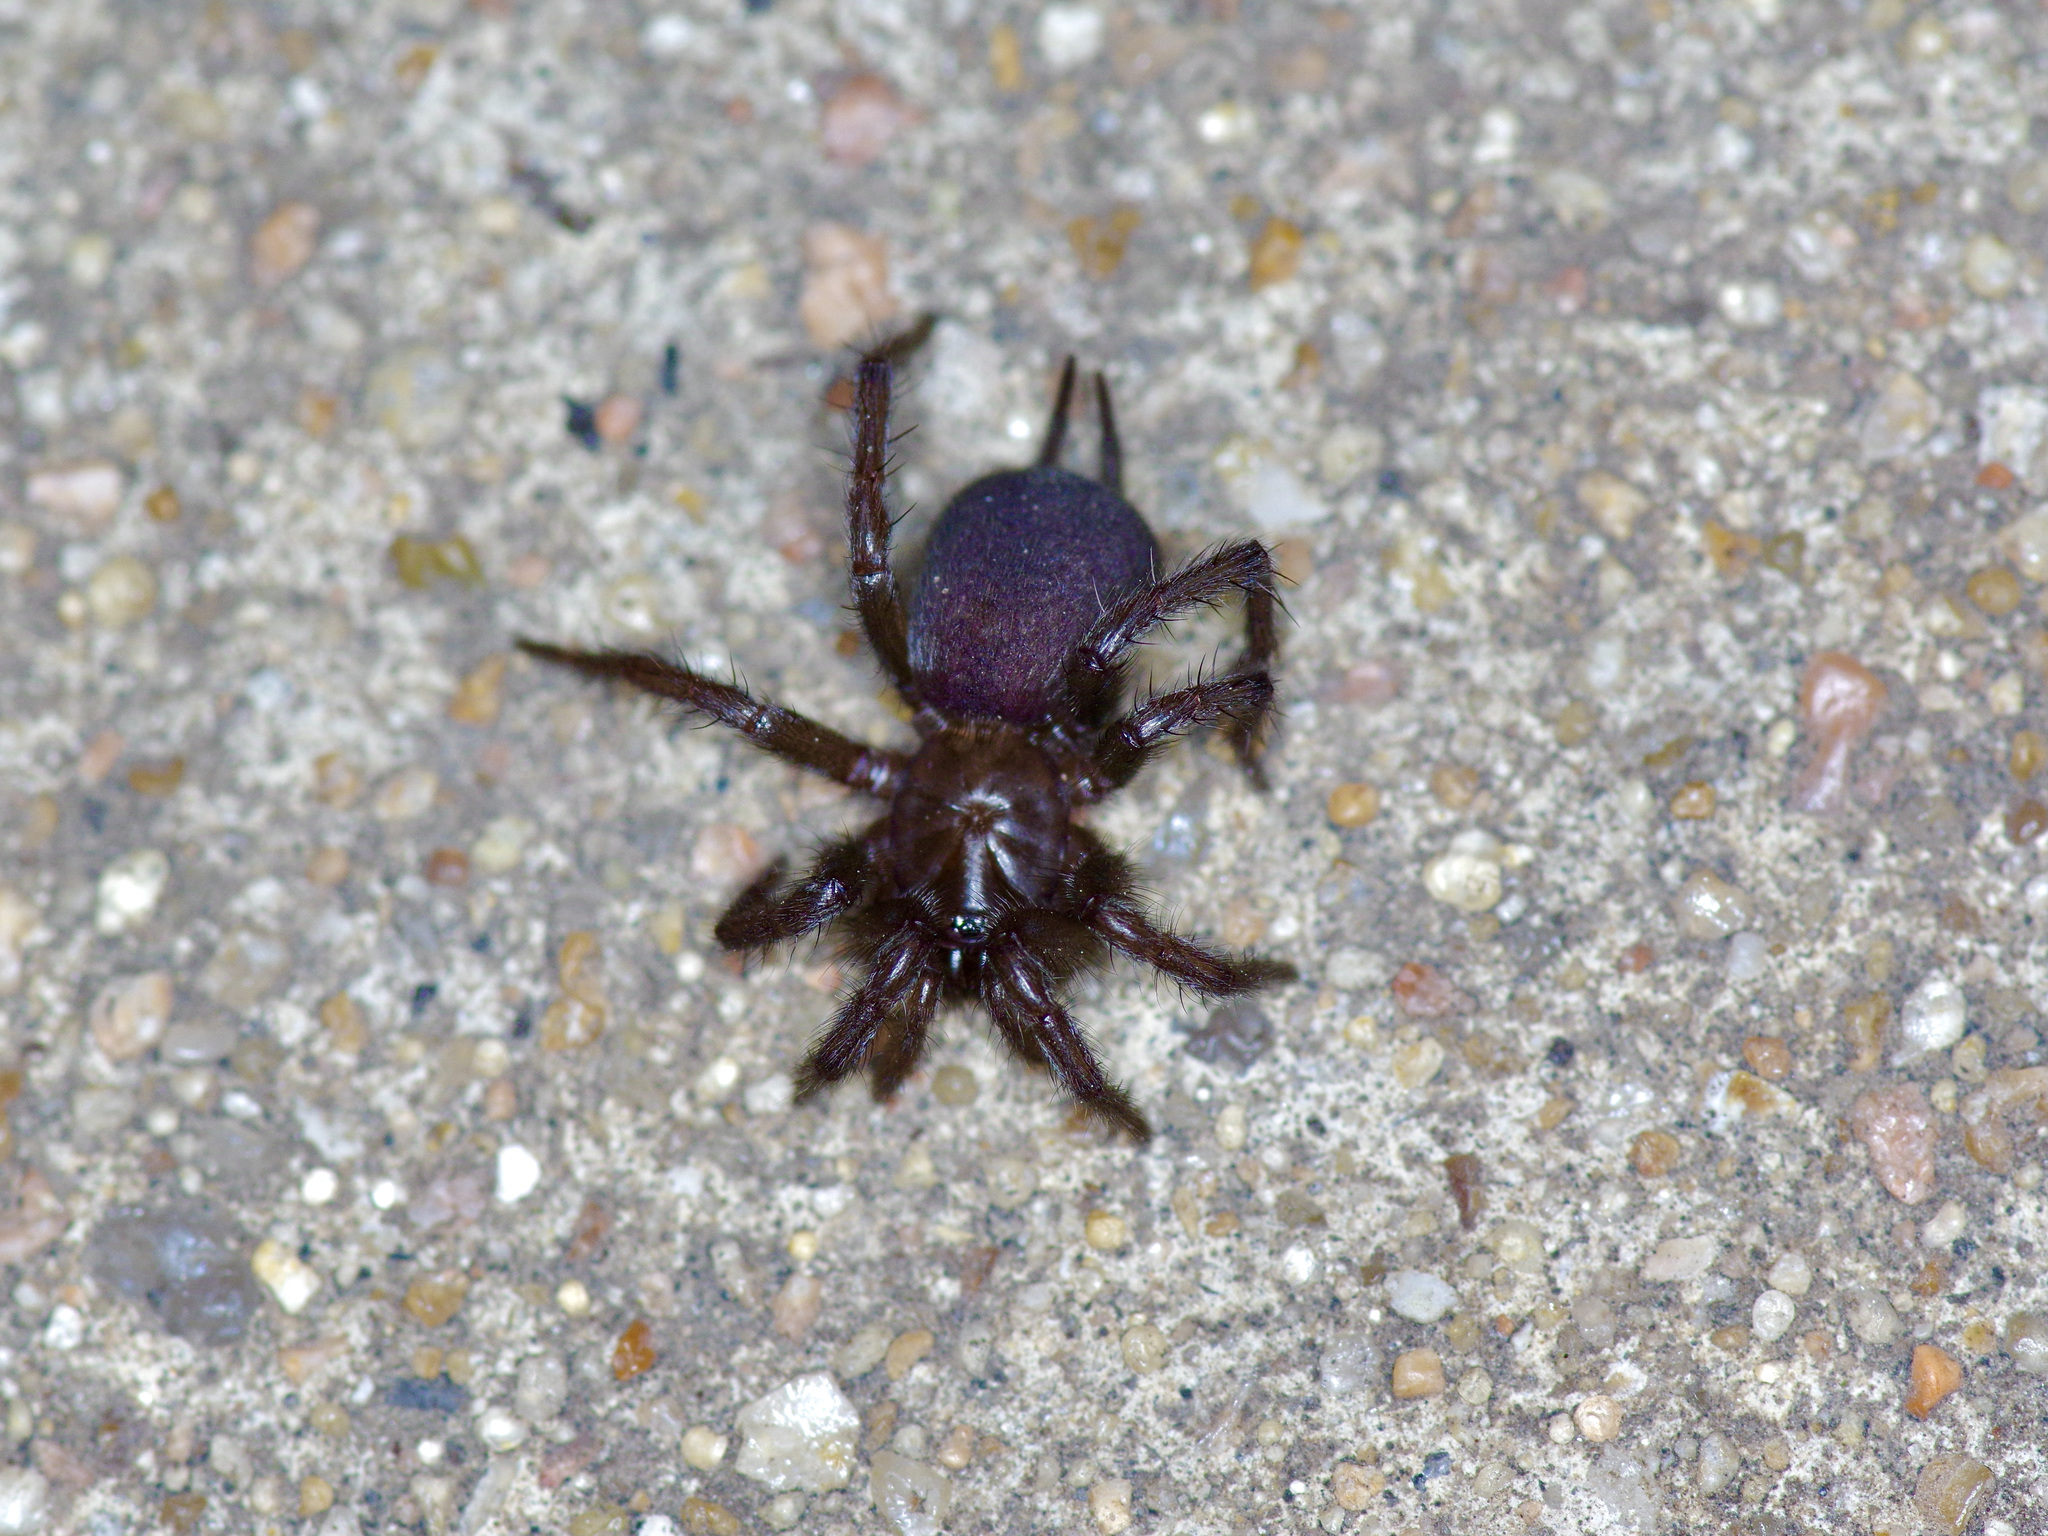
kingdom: Animalia
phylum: Arthropoda
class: Arachnida
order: Araneae
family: Euagridae
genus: Euagrus
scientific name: Euagrus chisoseus
